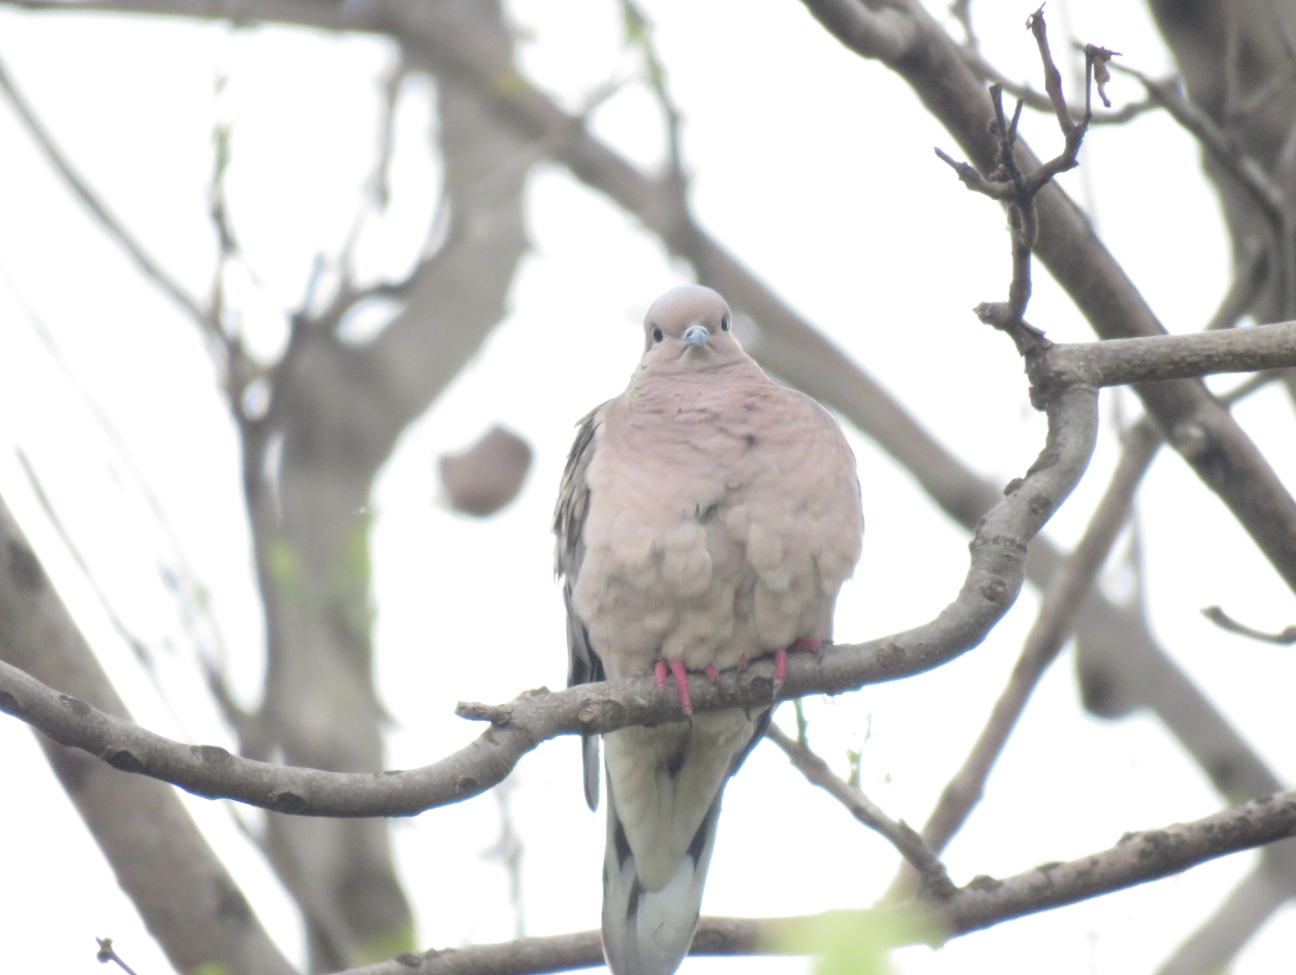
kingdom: Animalia
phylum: Chordata
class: Aves
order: Columbiformes
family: Columbidae
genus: Zenaida
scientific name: Zenaida auriculata
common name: Eared dove
